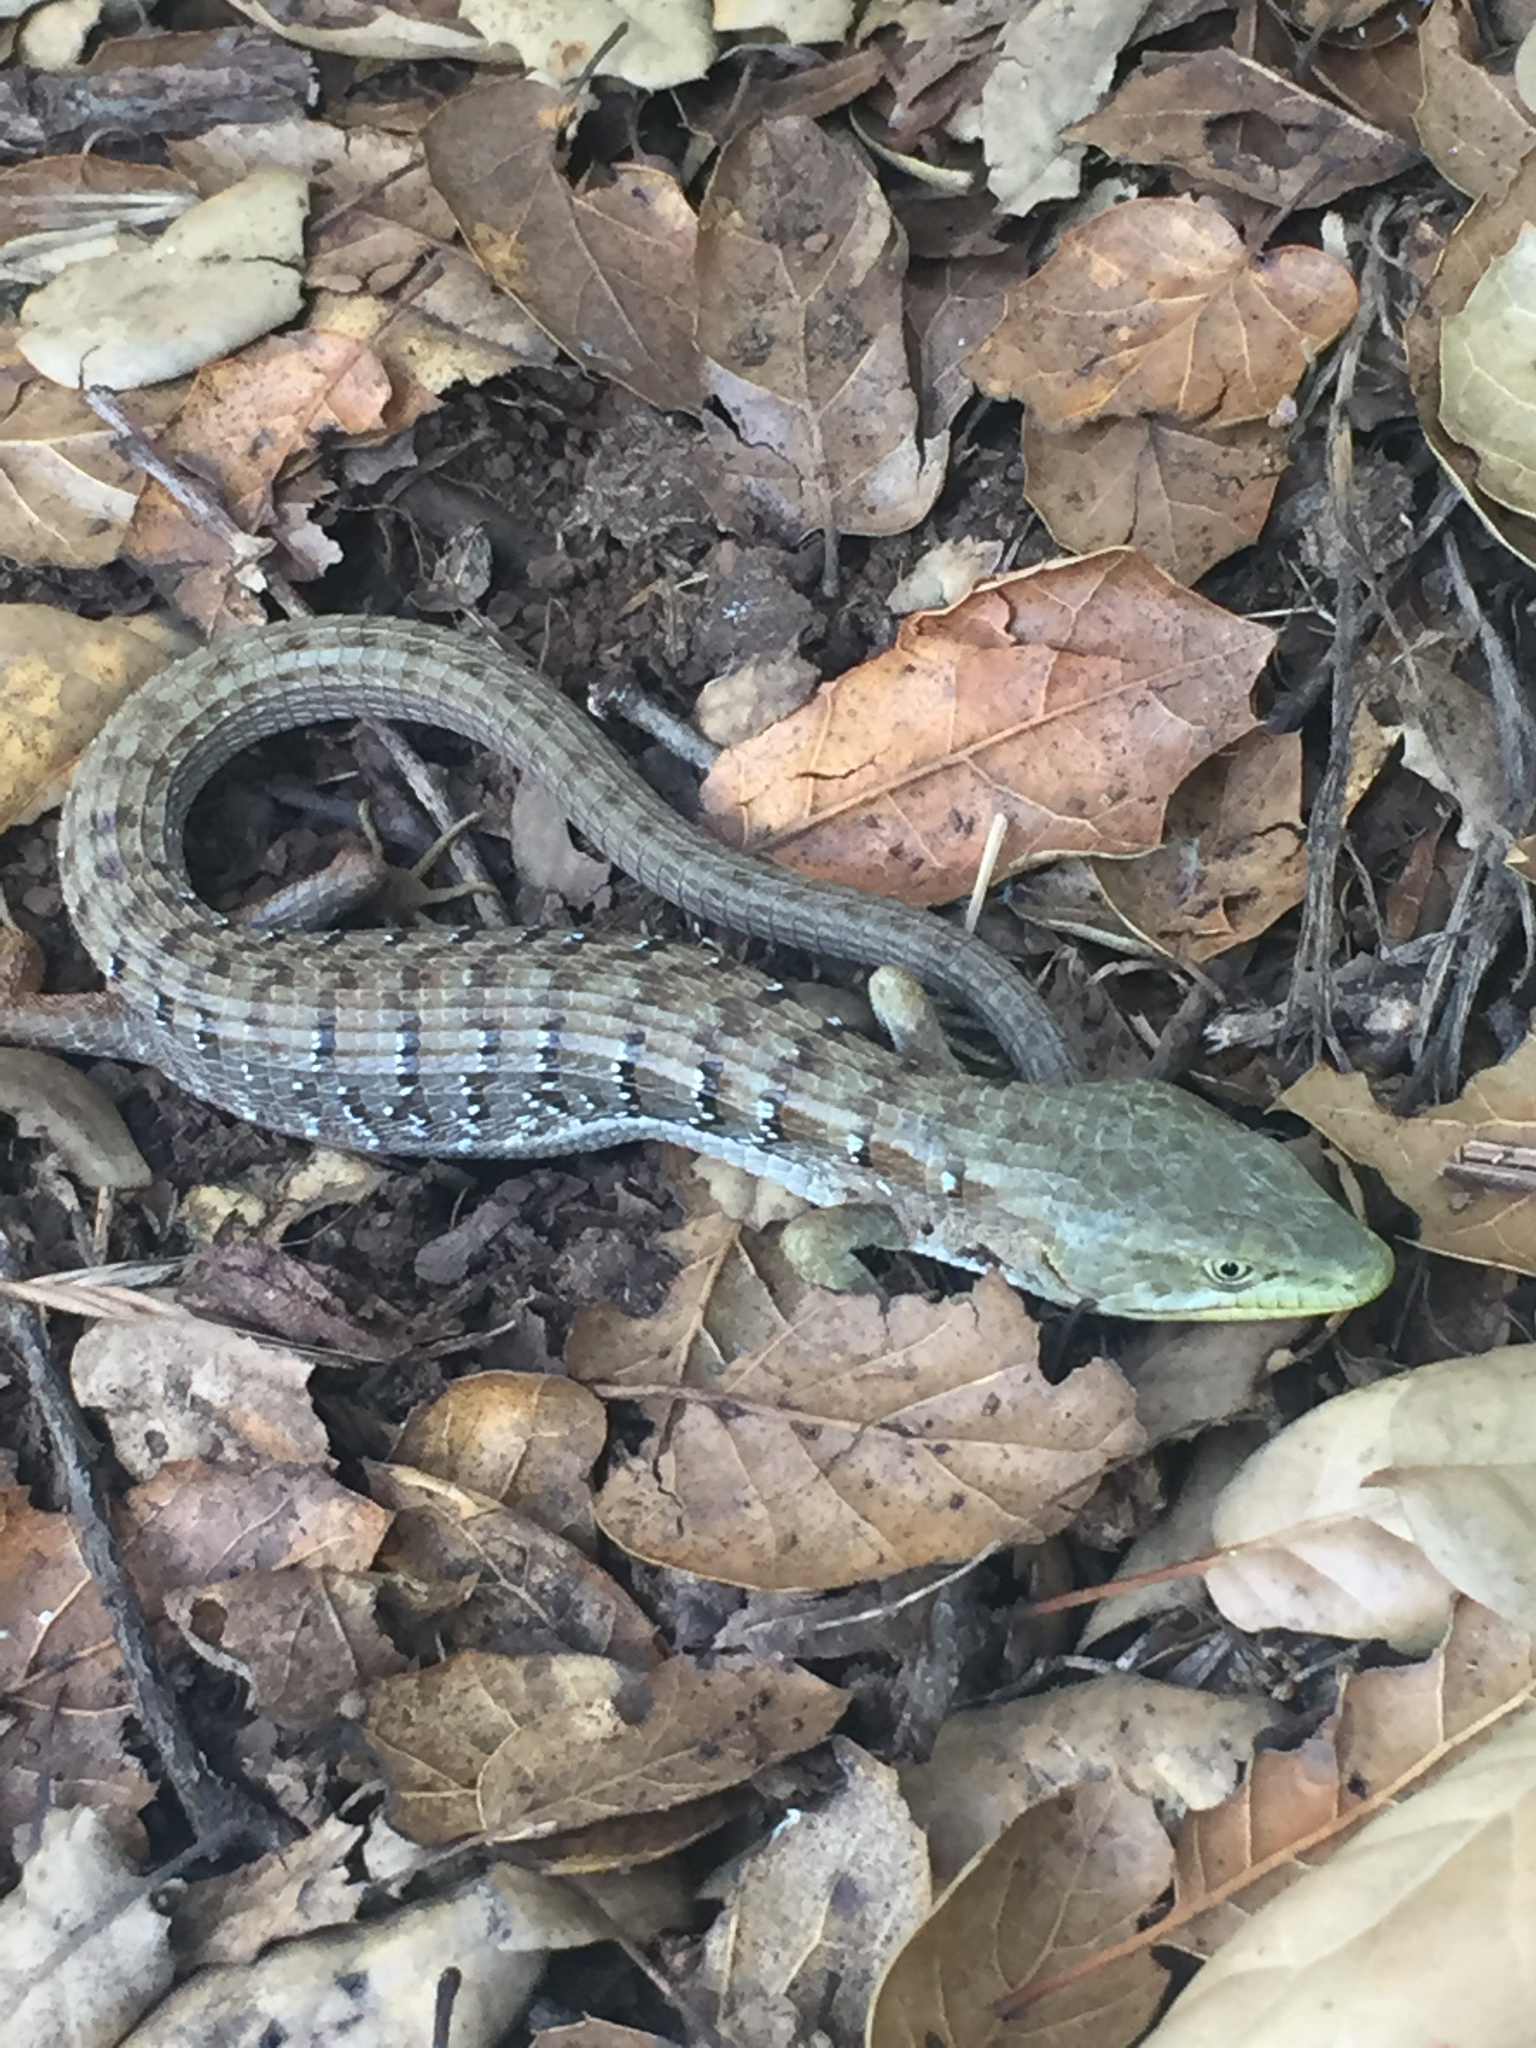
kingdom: Animalia
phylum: Chordata
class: Squamata
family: Anguidae
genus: Elgaria
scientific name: Elgaria multicarinata
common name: Southern alligator lizard
